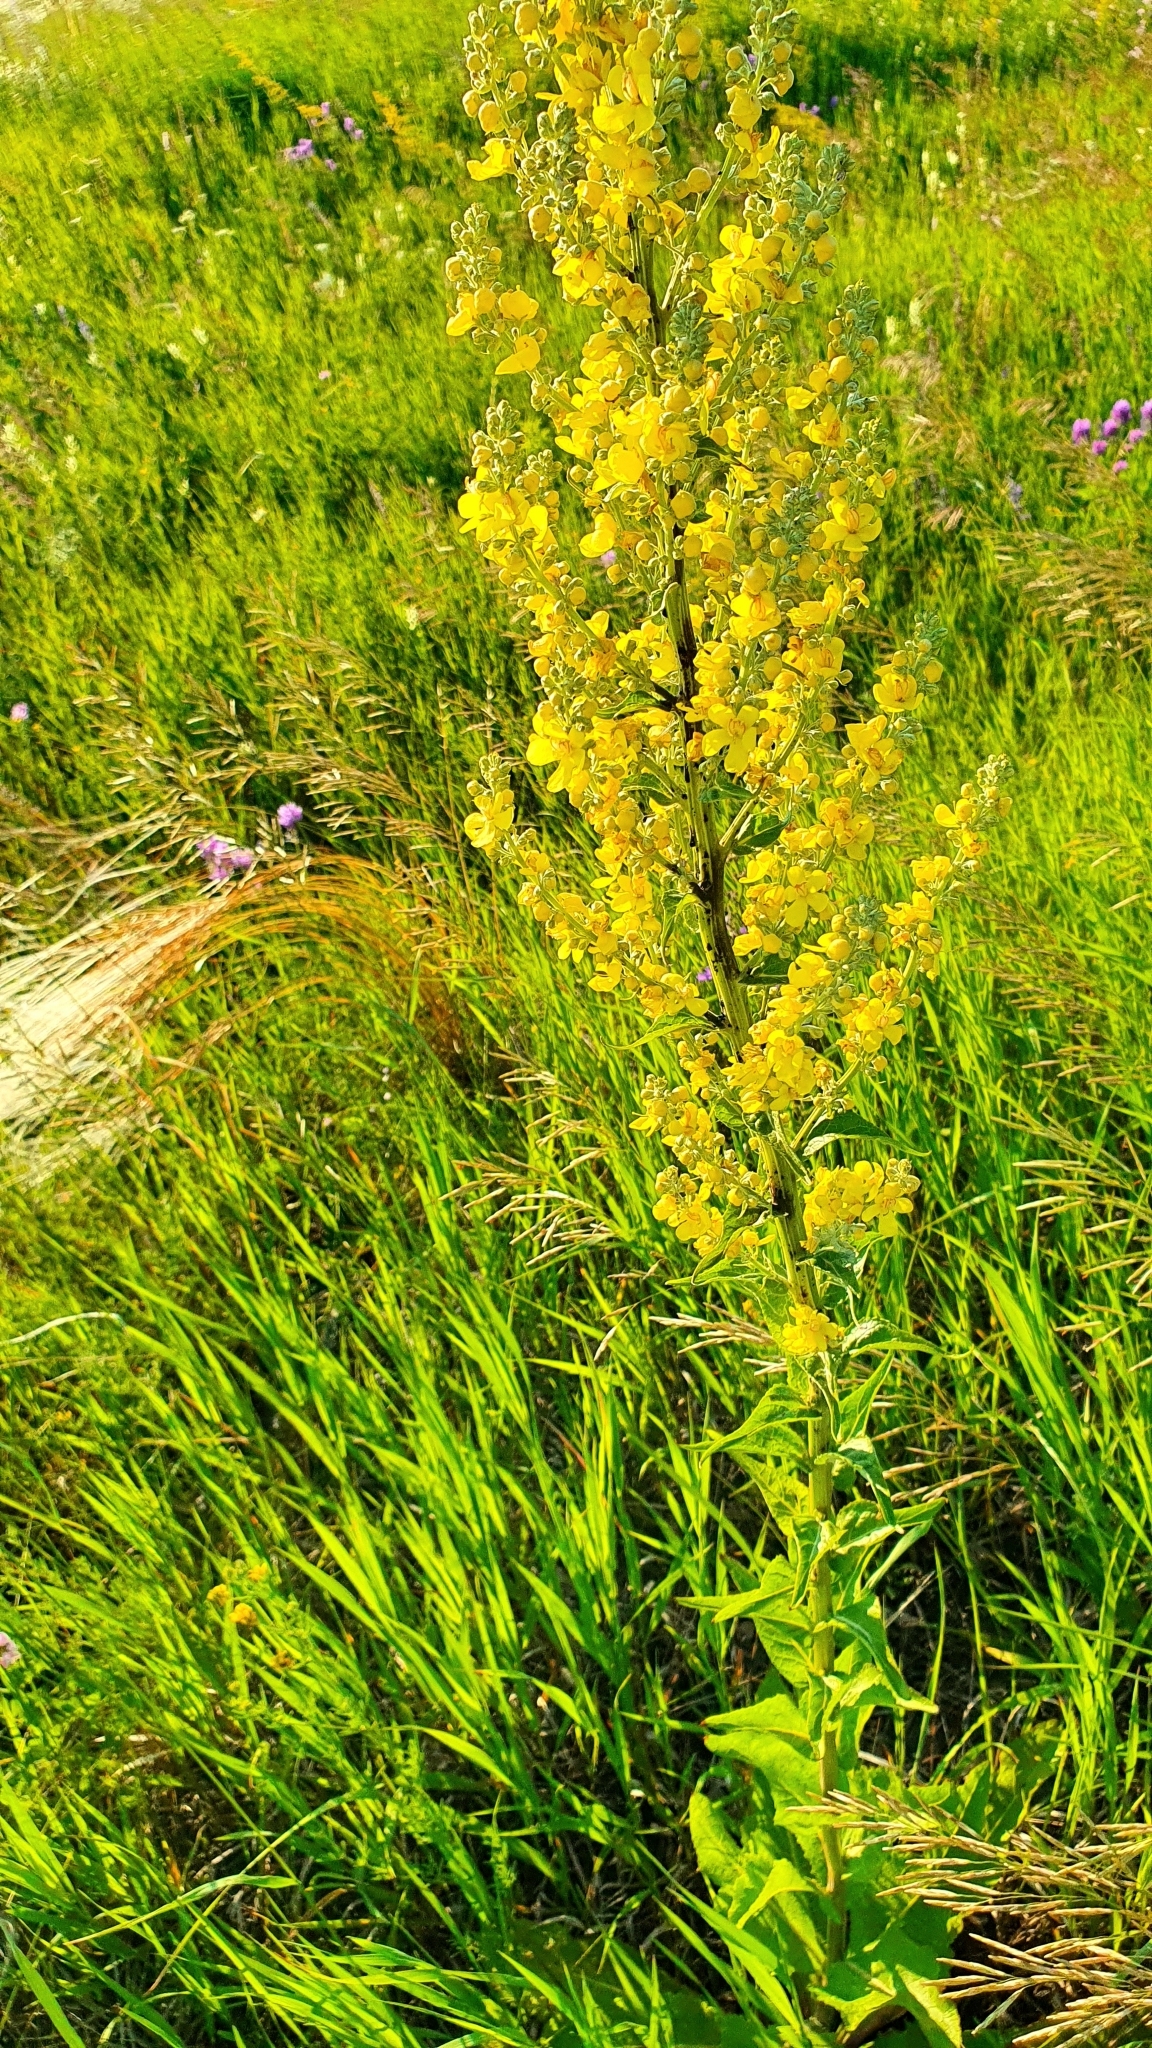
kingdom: Plantae
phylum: Tracheophyta
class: Magnoliopsida
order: Lamiales
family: Scrophulariaceae
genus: Verbascum
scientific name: Verbascum lychnitis
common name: White mullein
